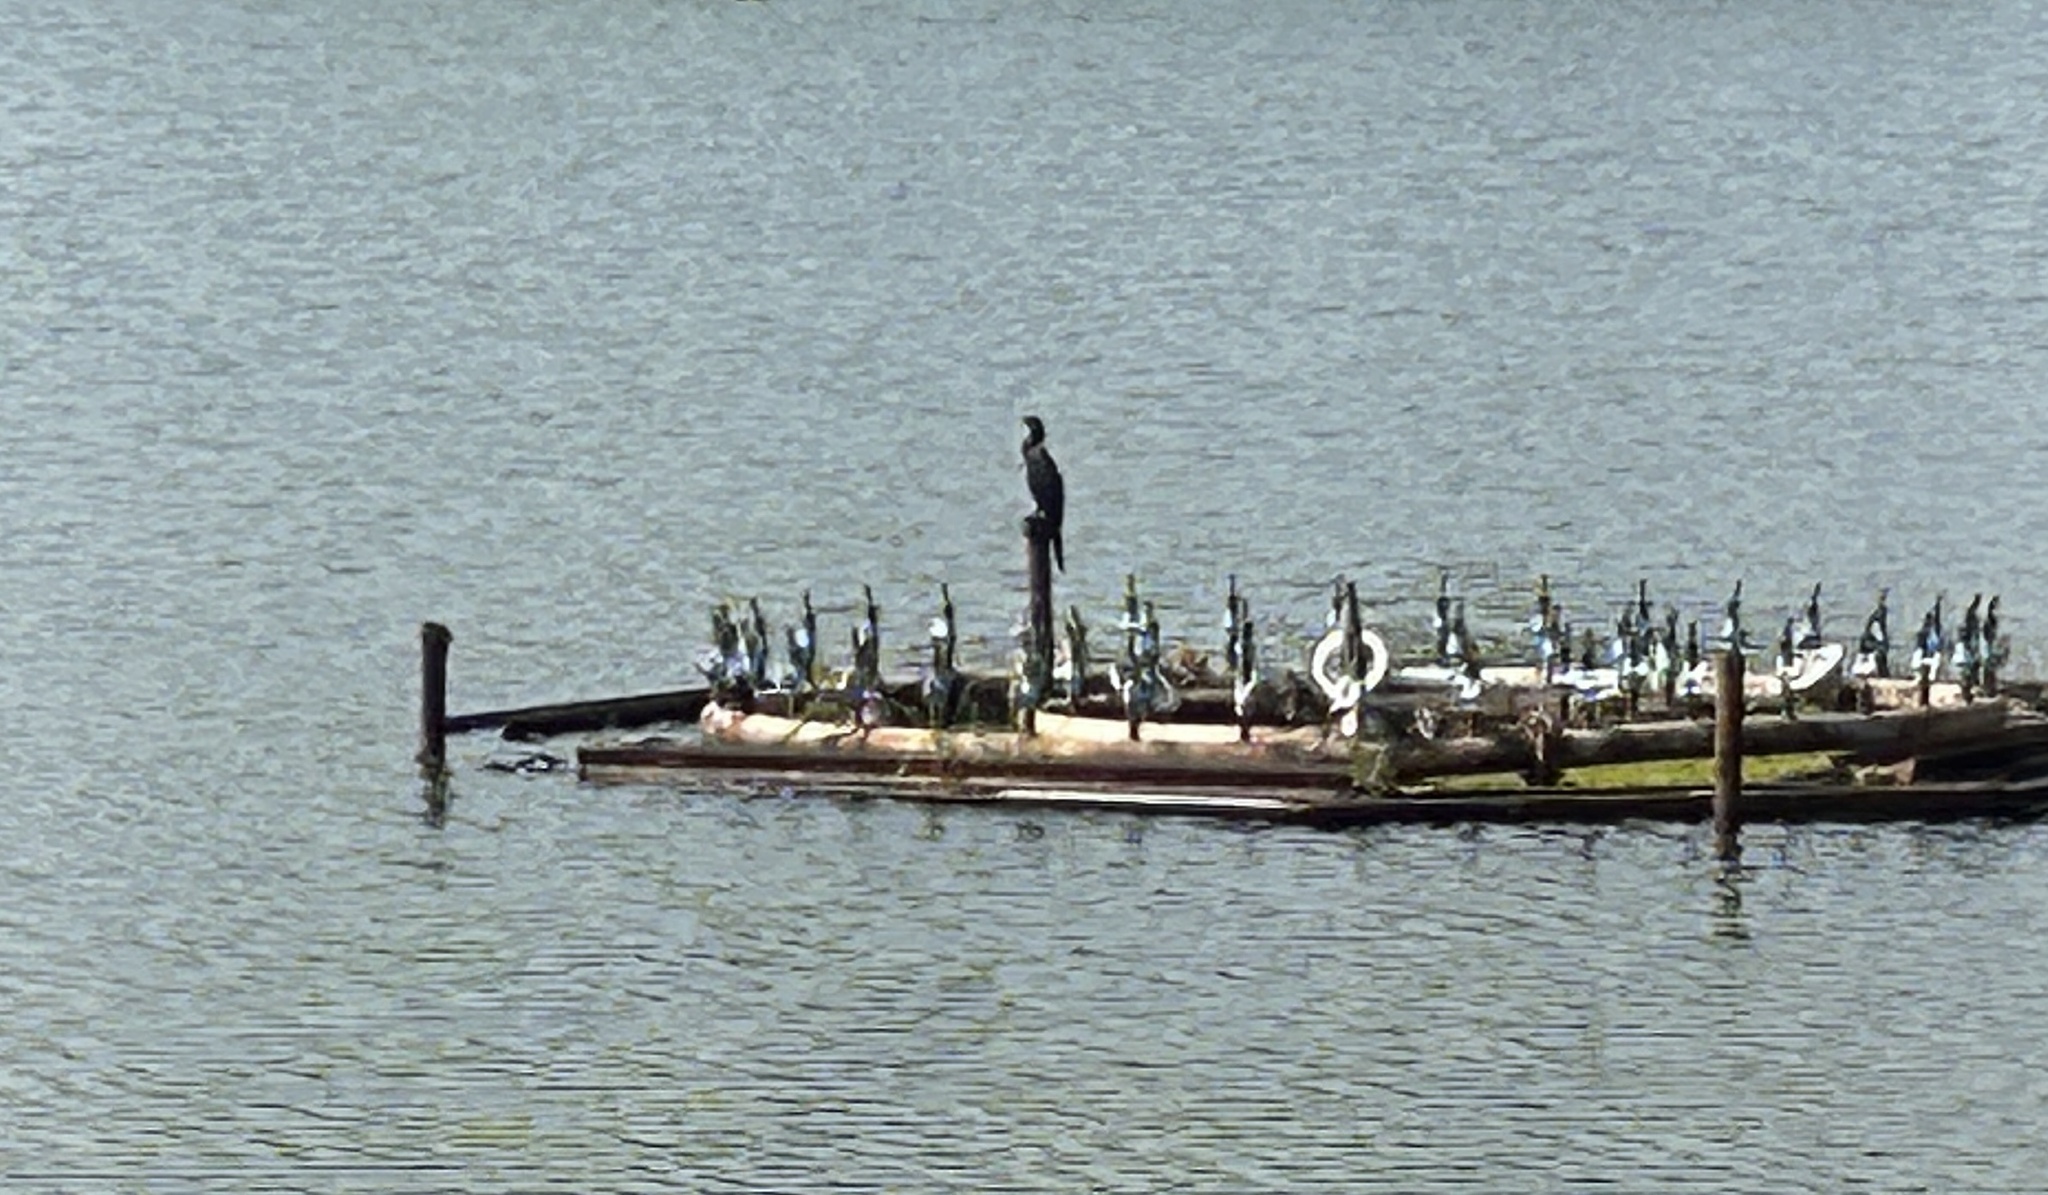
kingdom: Animalia
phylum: Chordata
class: Aves
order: Suliformes
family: Phalacrocoracidae
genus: Microcarbo
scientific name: Microcarbo niger
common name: Little cormorant
